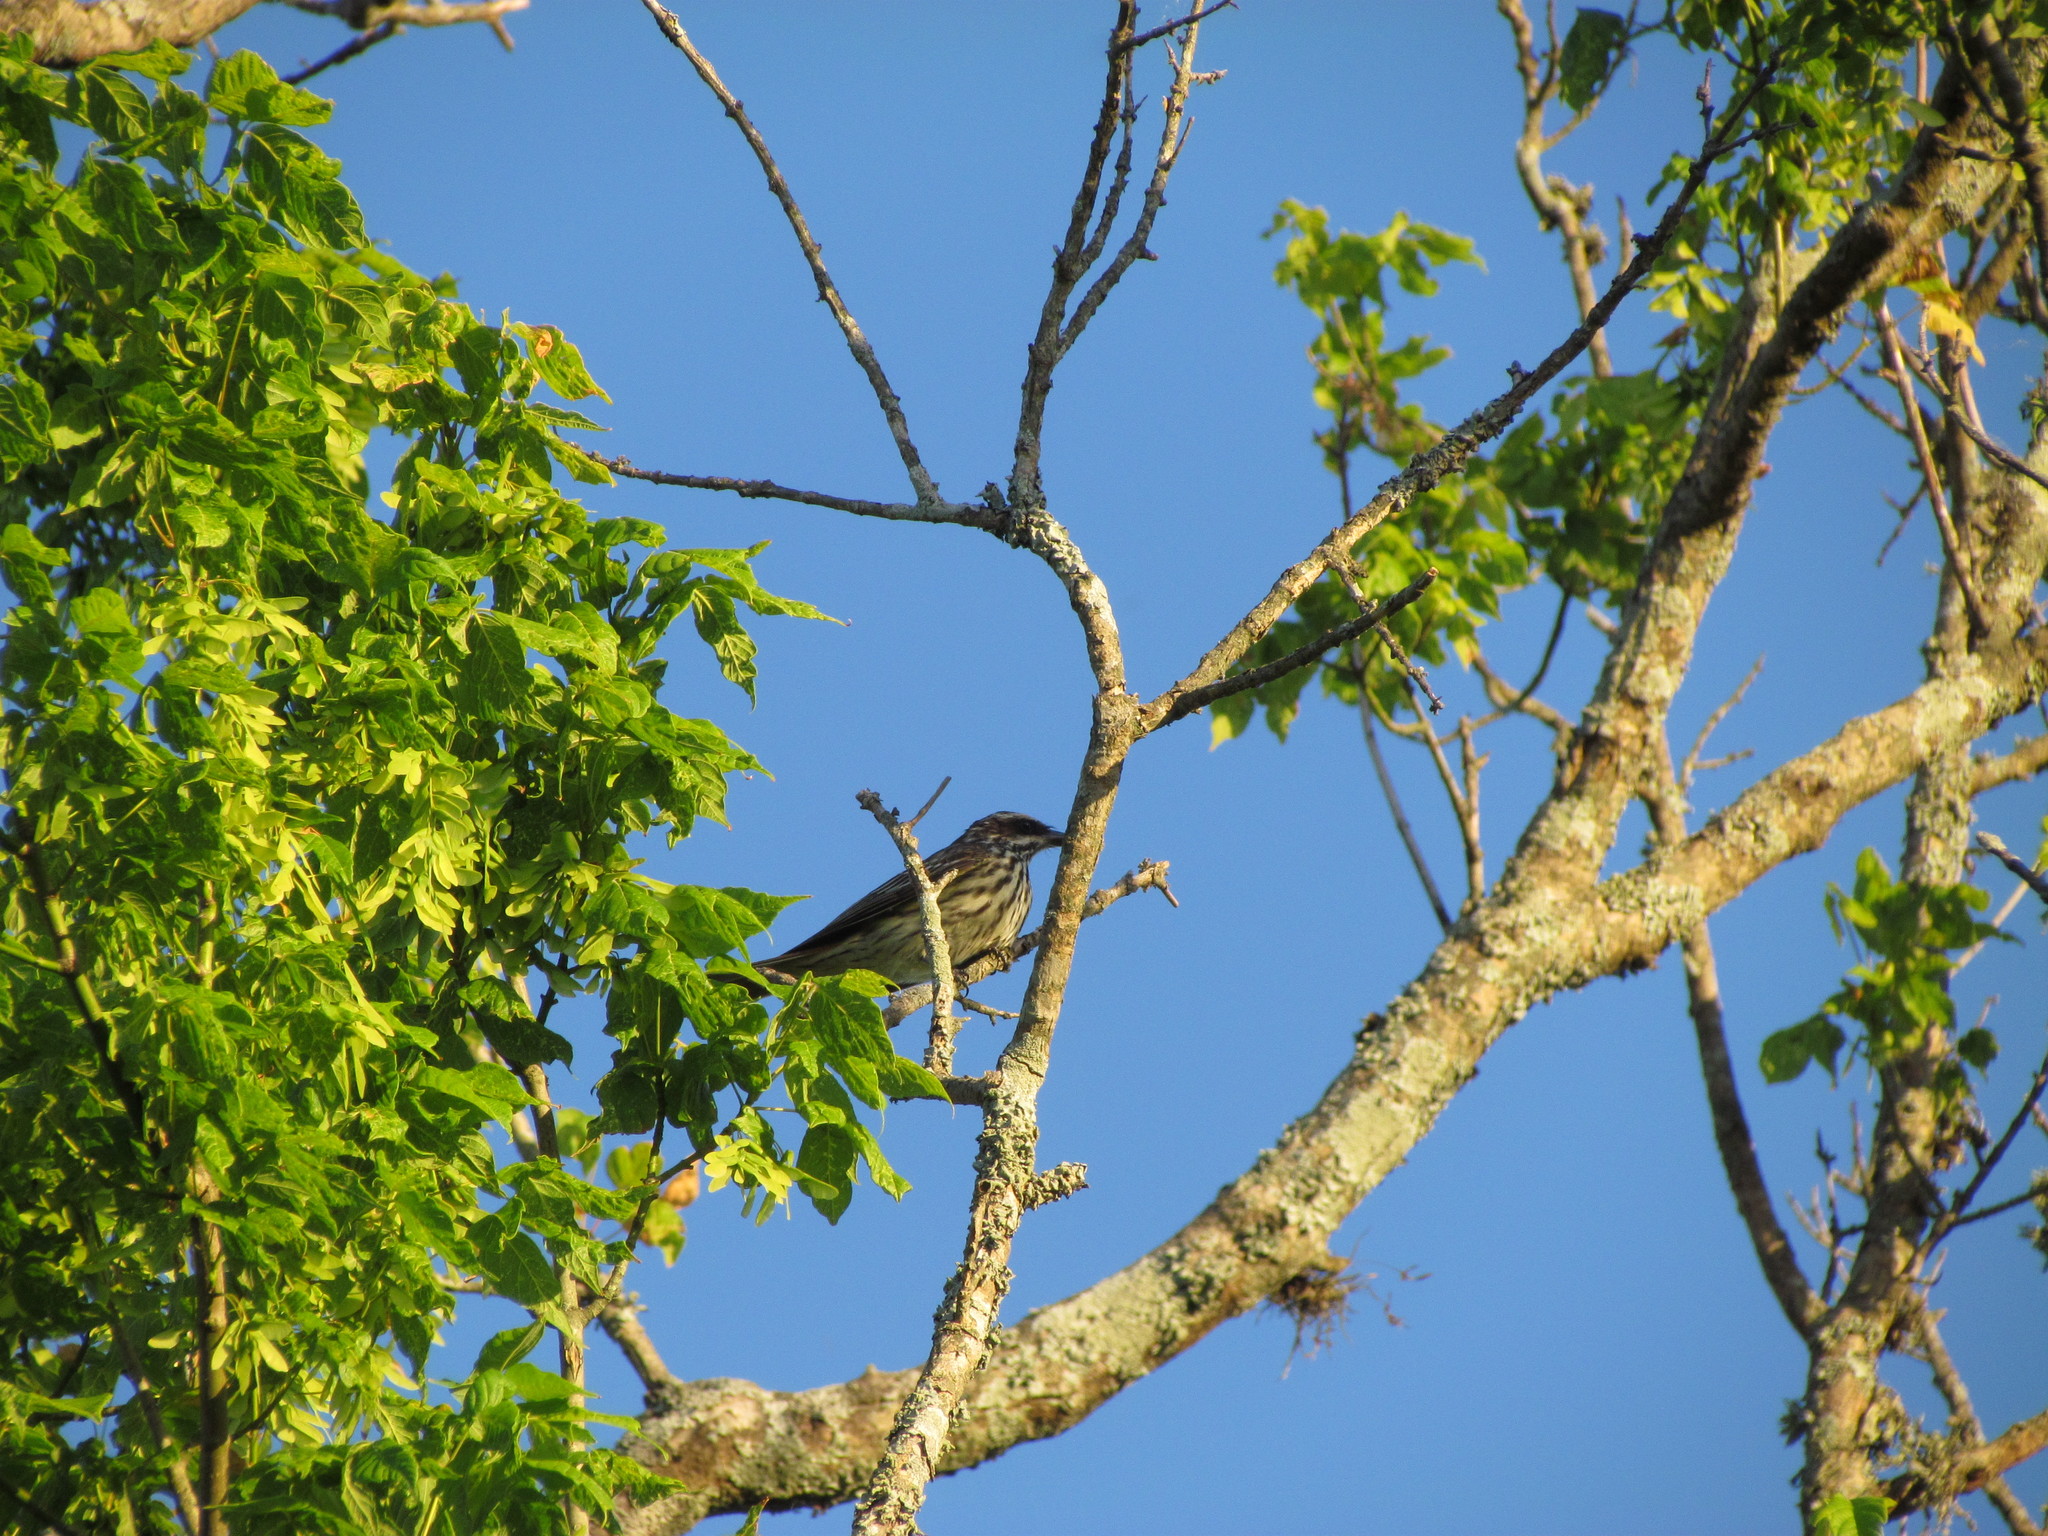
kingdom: Animalia
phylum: Chordata
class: Aves
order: Passeriformes
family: Tyrannidae
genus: Myiodynastes
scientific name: Myiodynastes maculatus
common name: Streaked flycatcher
